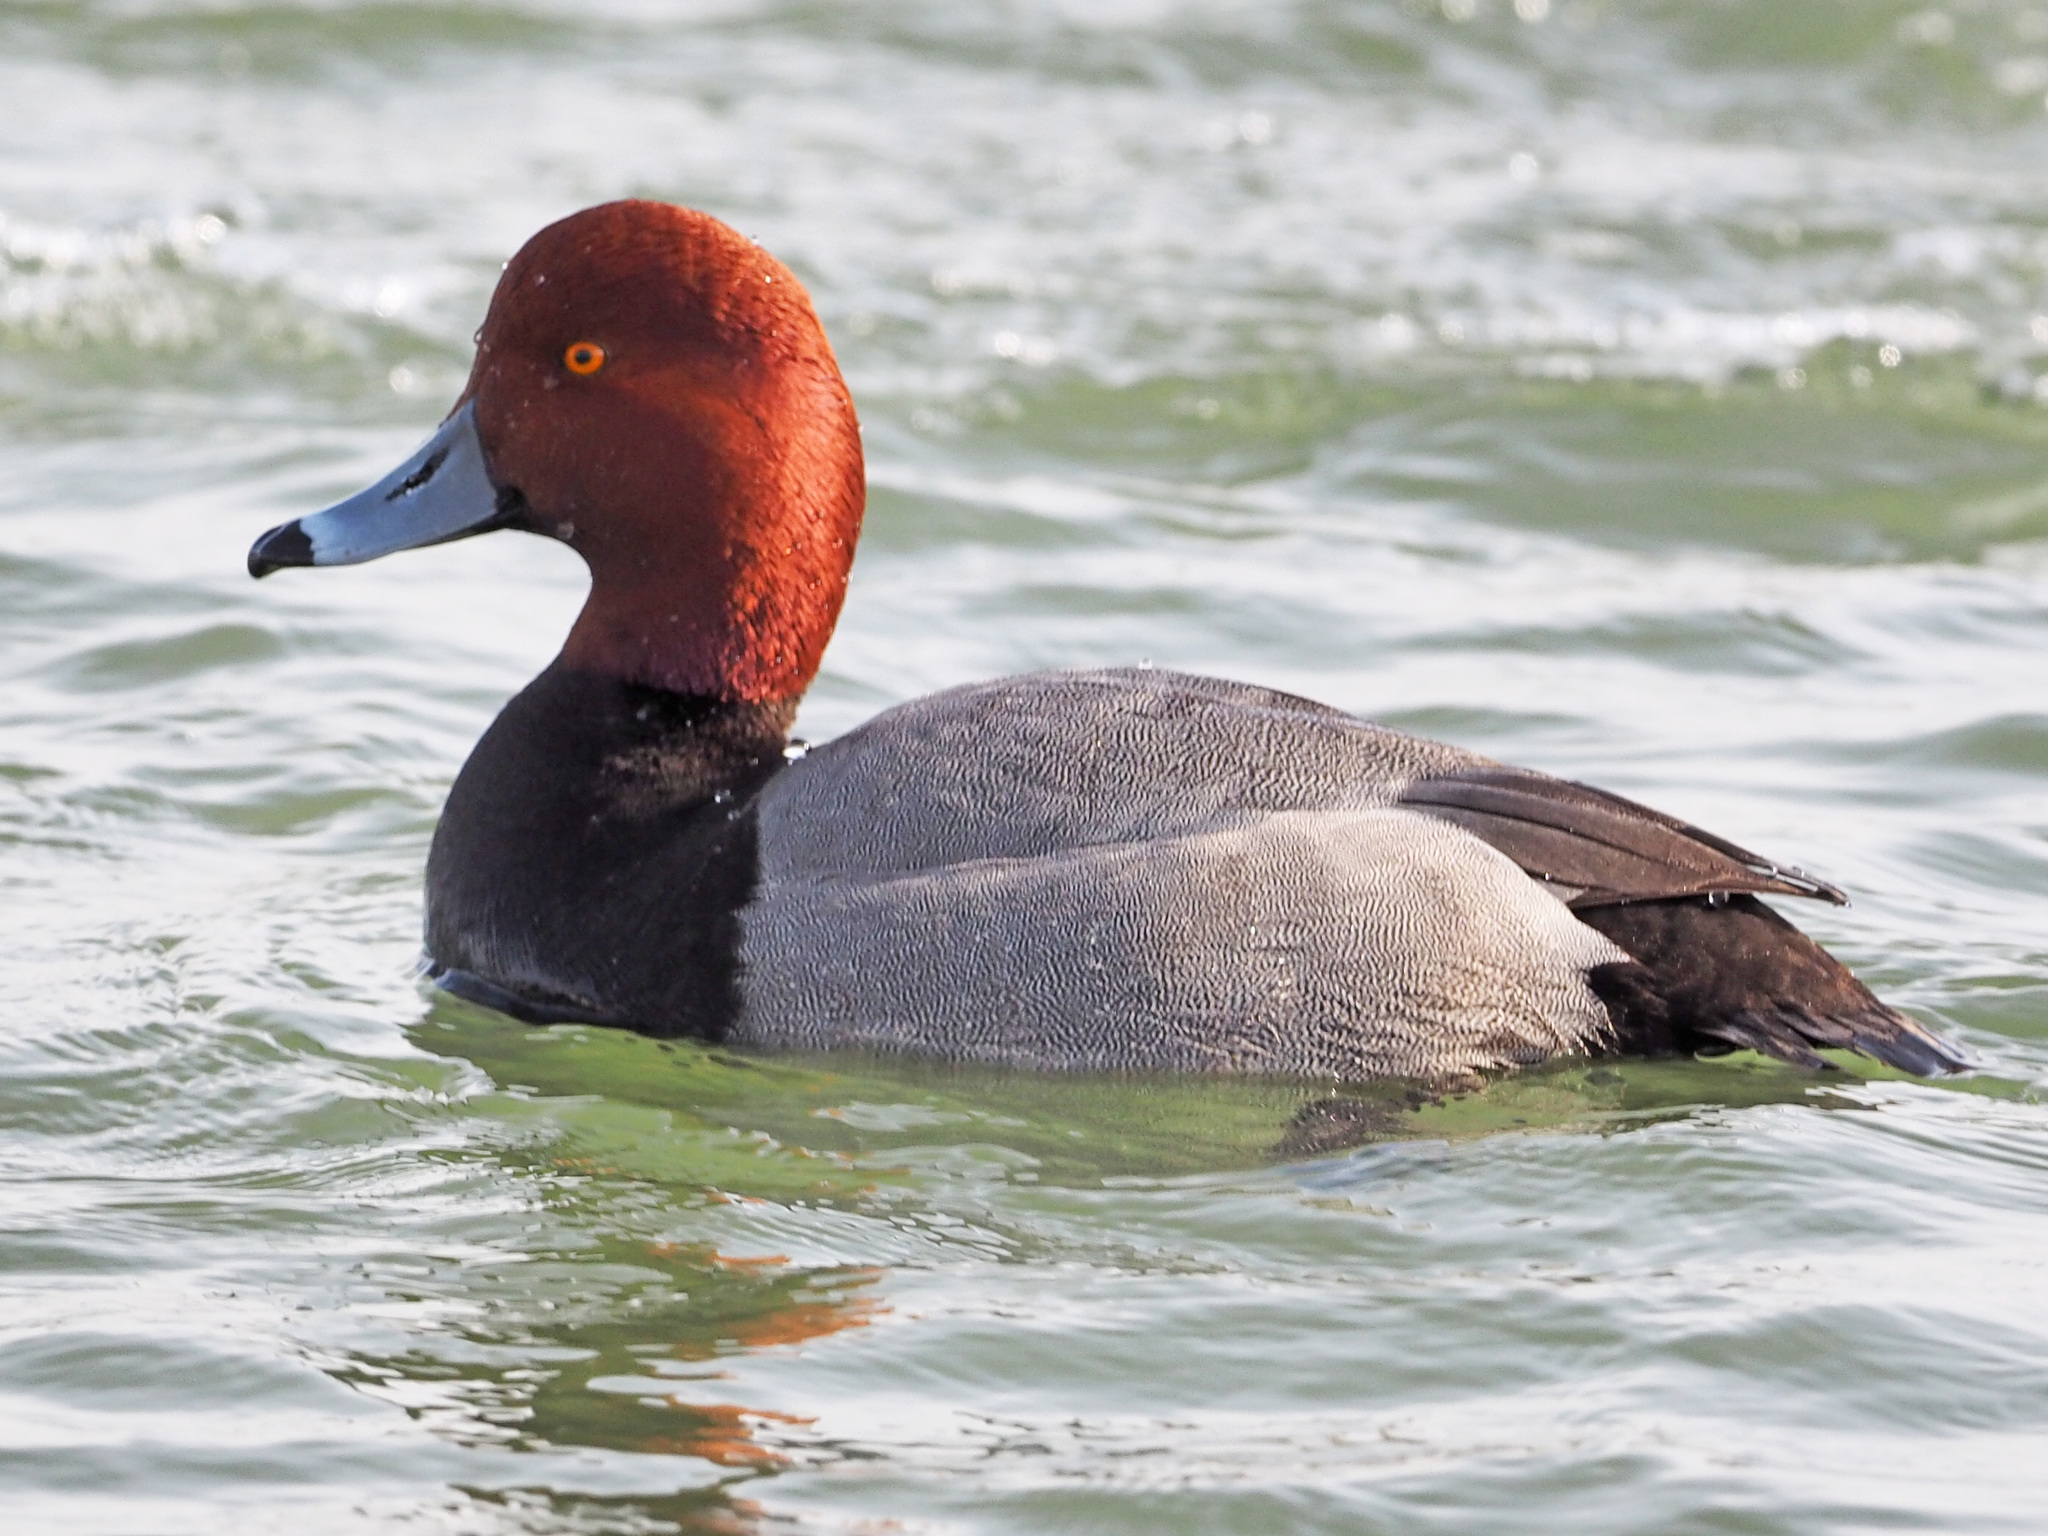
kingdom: Animalia
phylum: Chordata
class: Aves
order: Anseriformes
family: Anatidae
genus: Aythya
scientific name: Aythya americana
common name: Redhead
